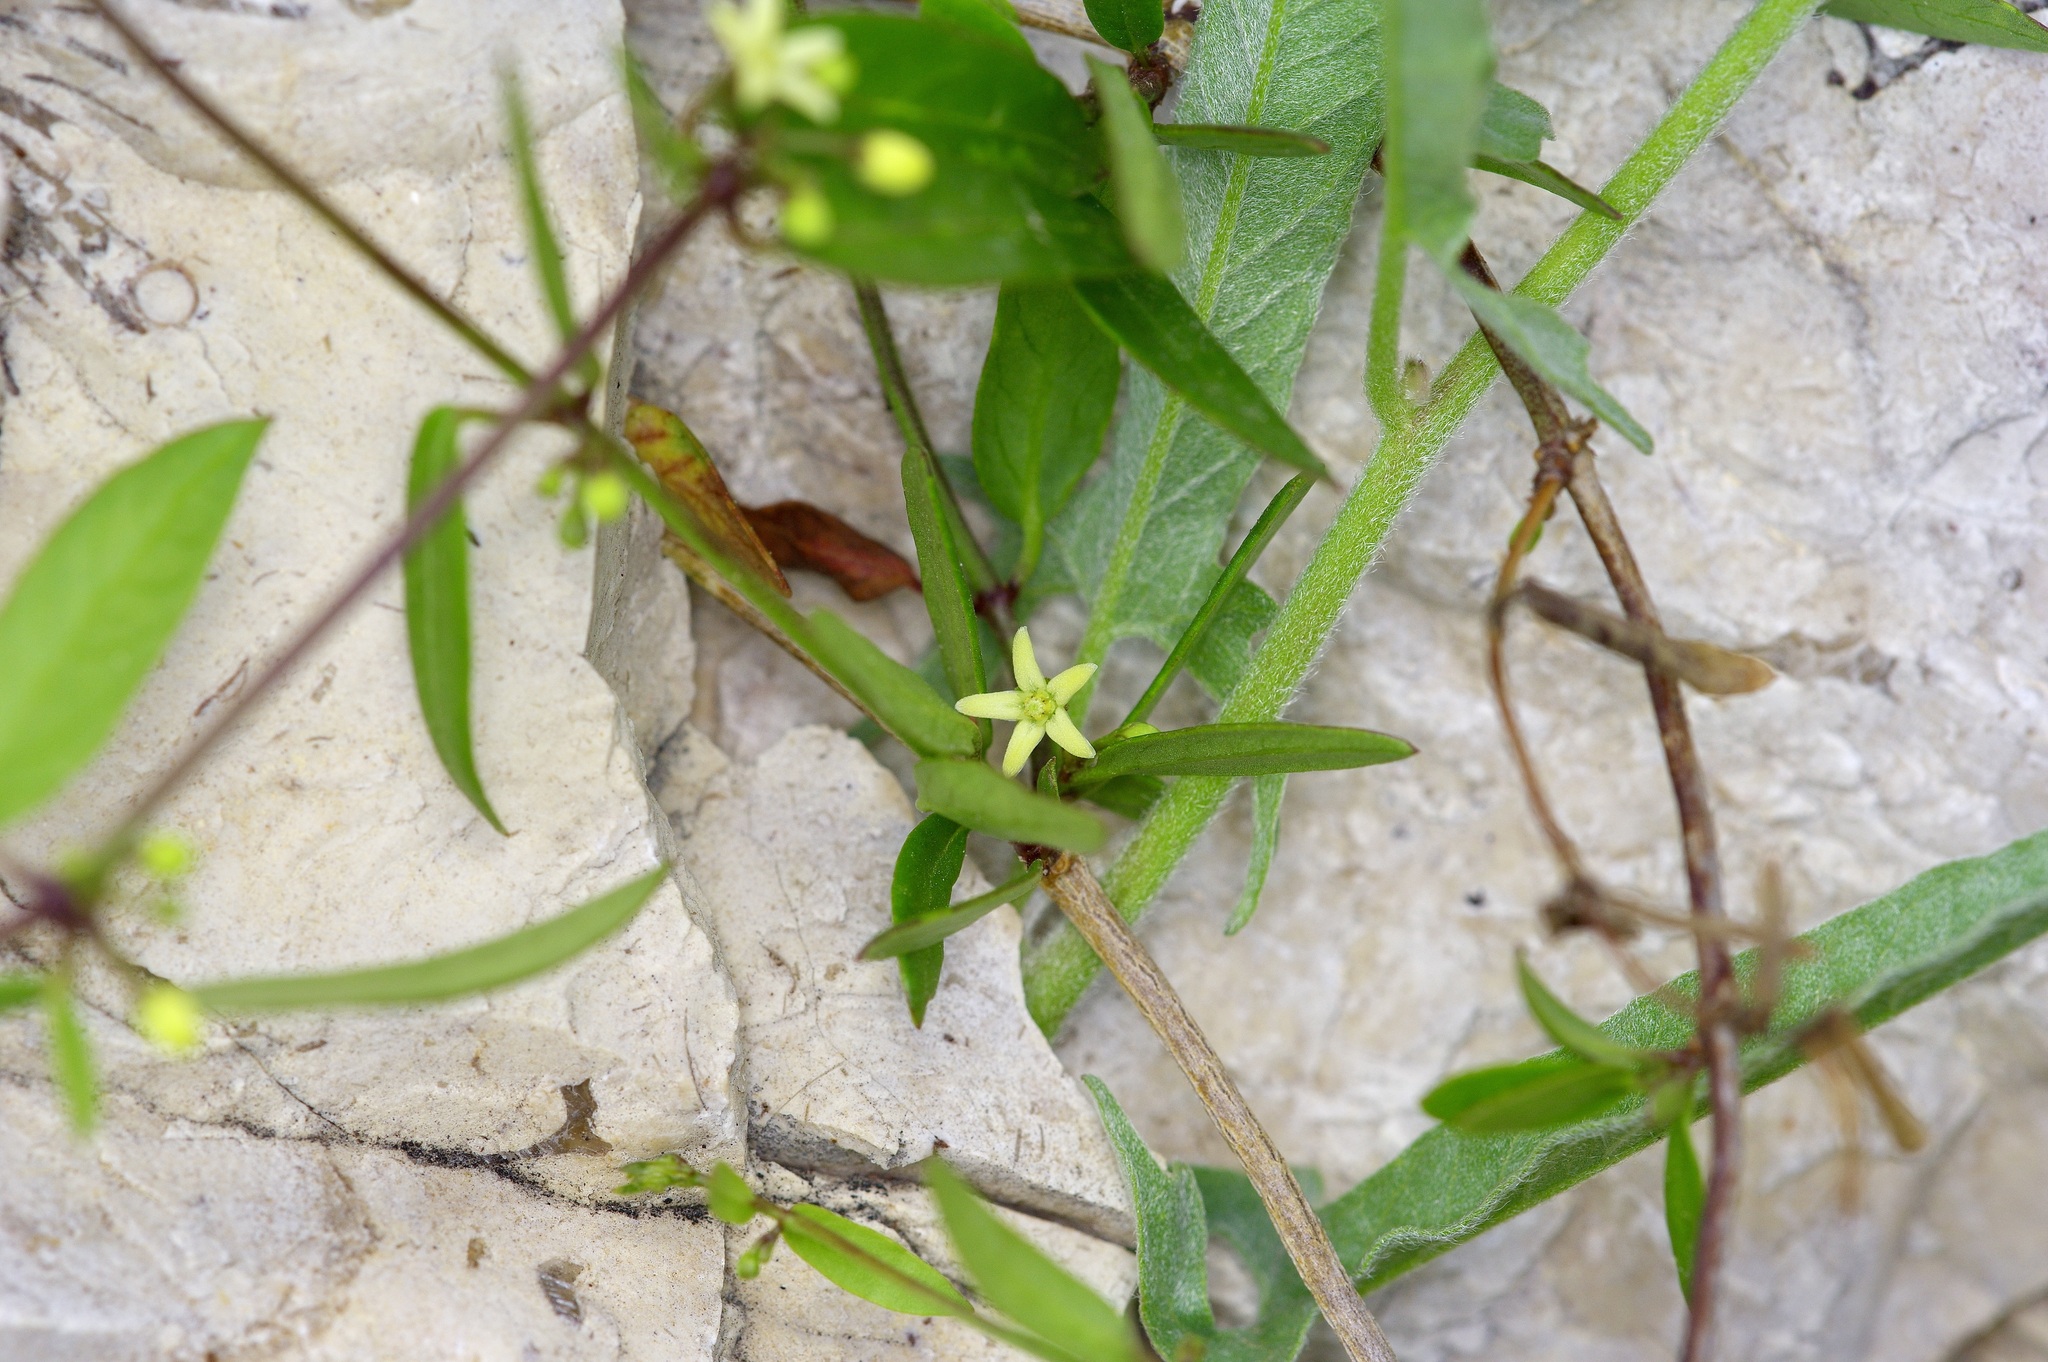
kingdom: Plantae
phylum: Tracheophyta
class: Magnoliopsida
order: Gentianales
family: Apocynaceae
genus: Metastelma
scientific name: Metastelma palmeri
